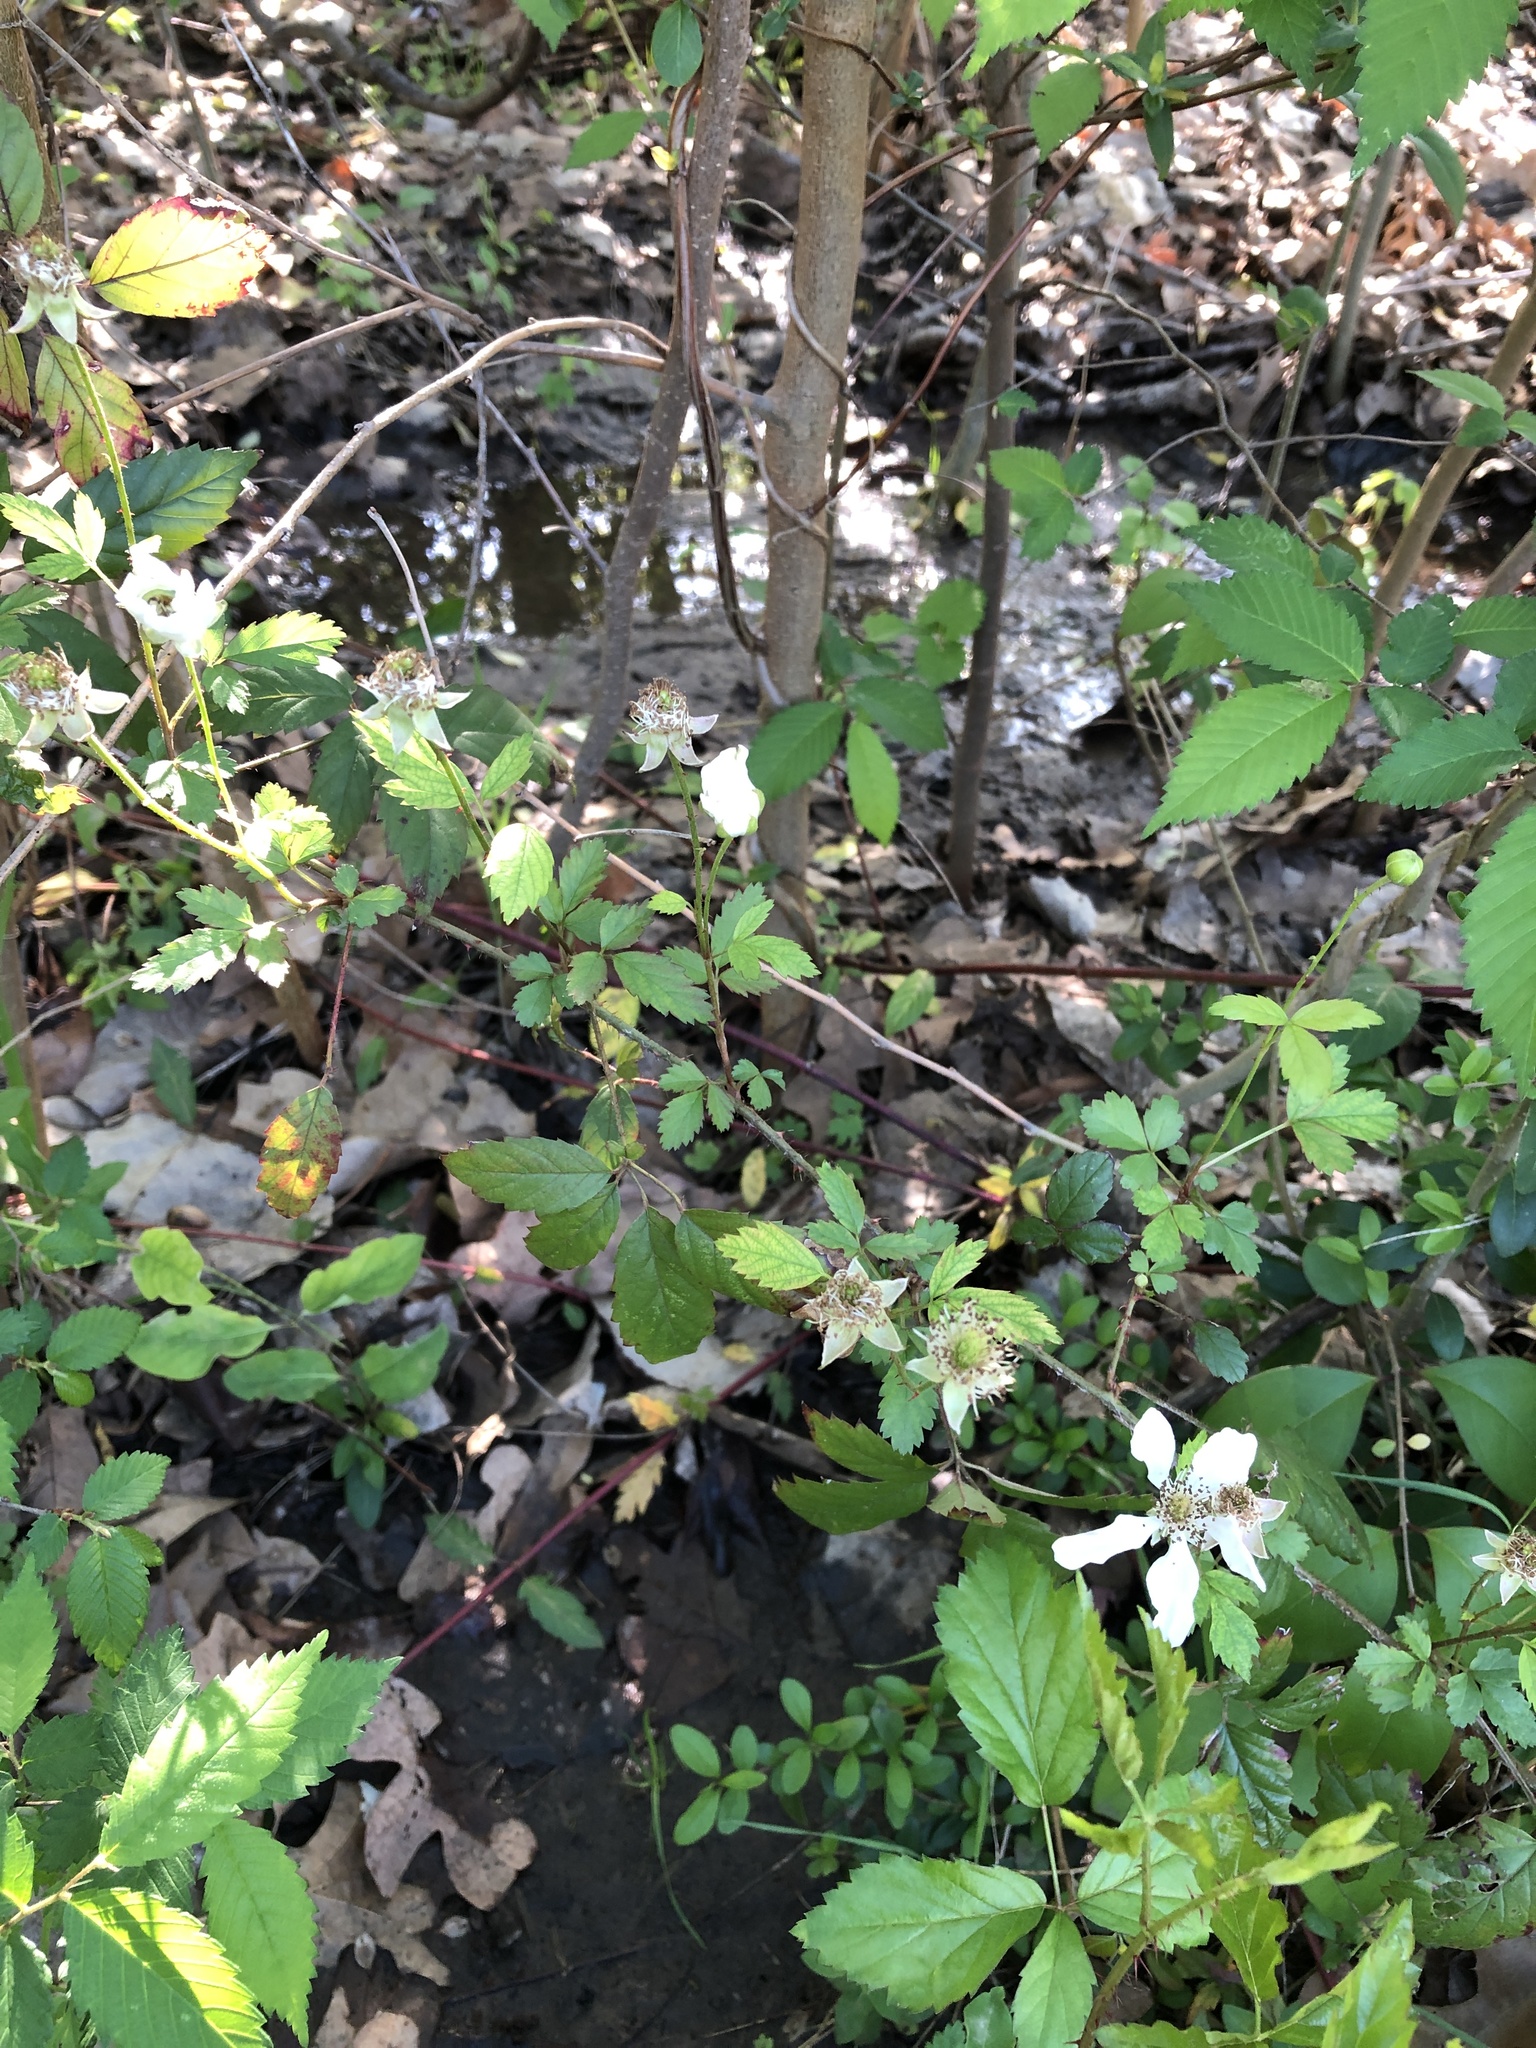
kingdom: Plantae
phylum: Tracheophyta
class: Magnoliopsida
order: Rosales
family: Rosaceae
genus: Rubus
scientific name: Rubus trivialis
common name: Southern dewberry
